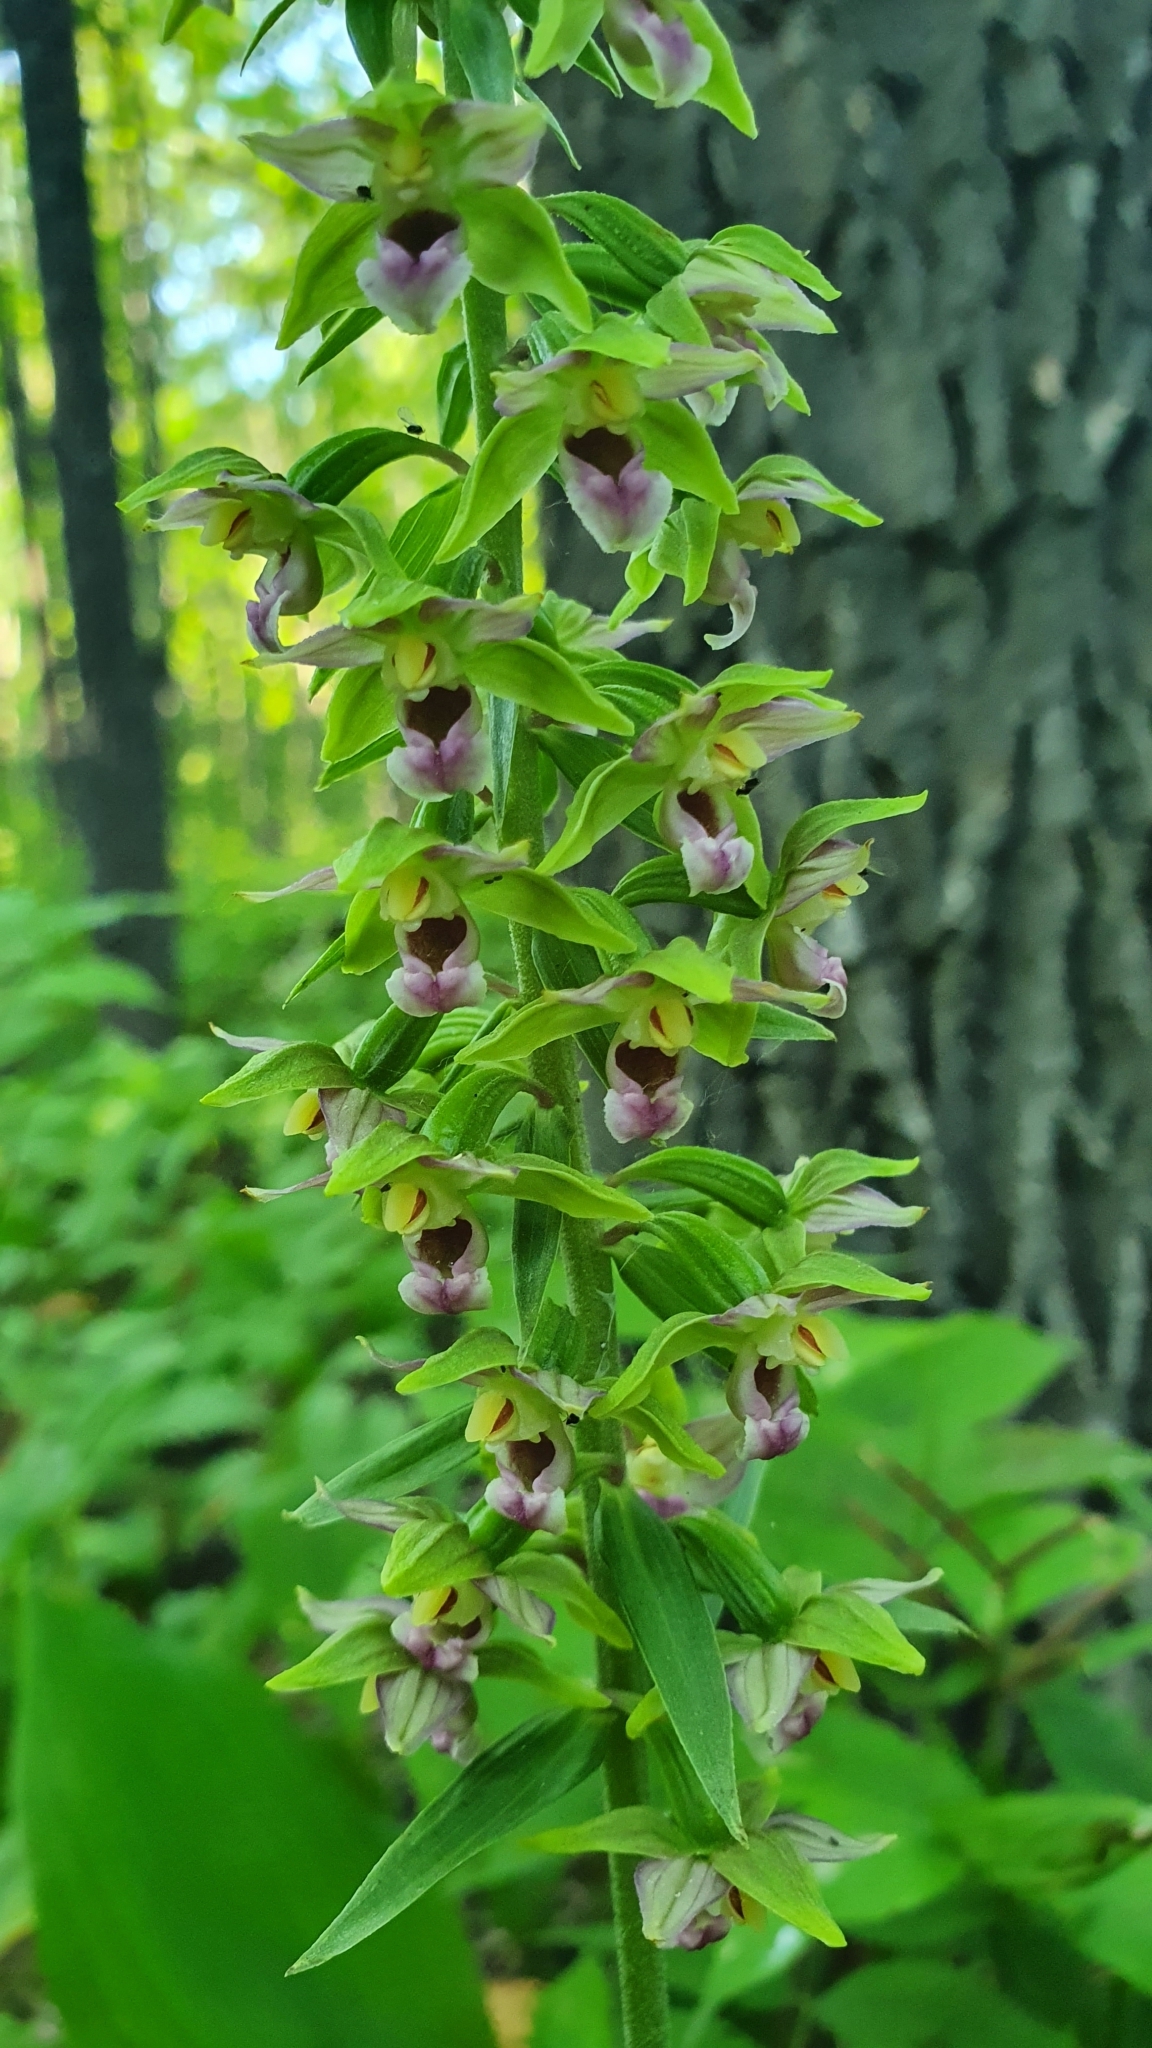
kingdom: Plantae
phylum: Tracheophyta
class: Liliopsida
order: Asparagales
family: Orchidaceae
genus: Epipactis
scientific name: Epipactis helleborine
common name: Broad-leaved helleborine
